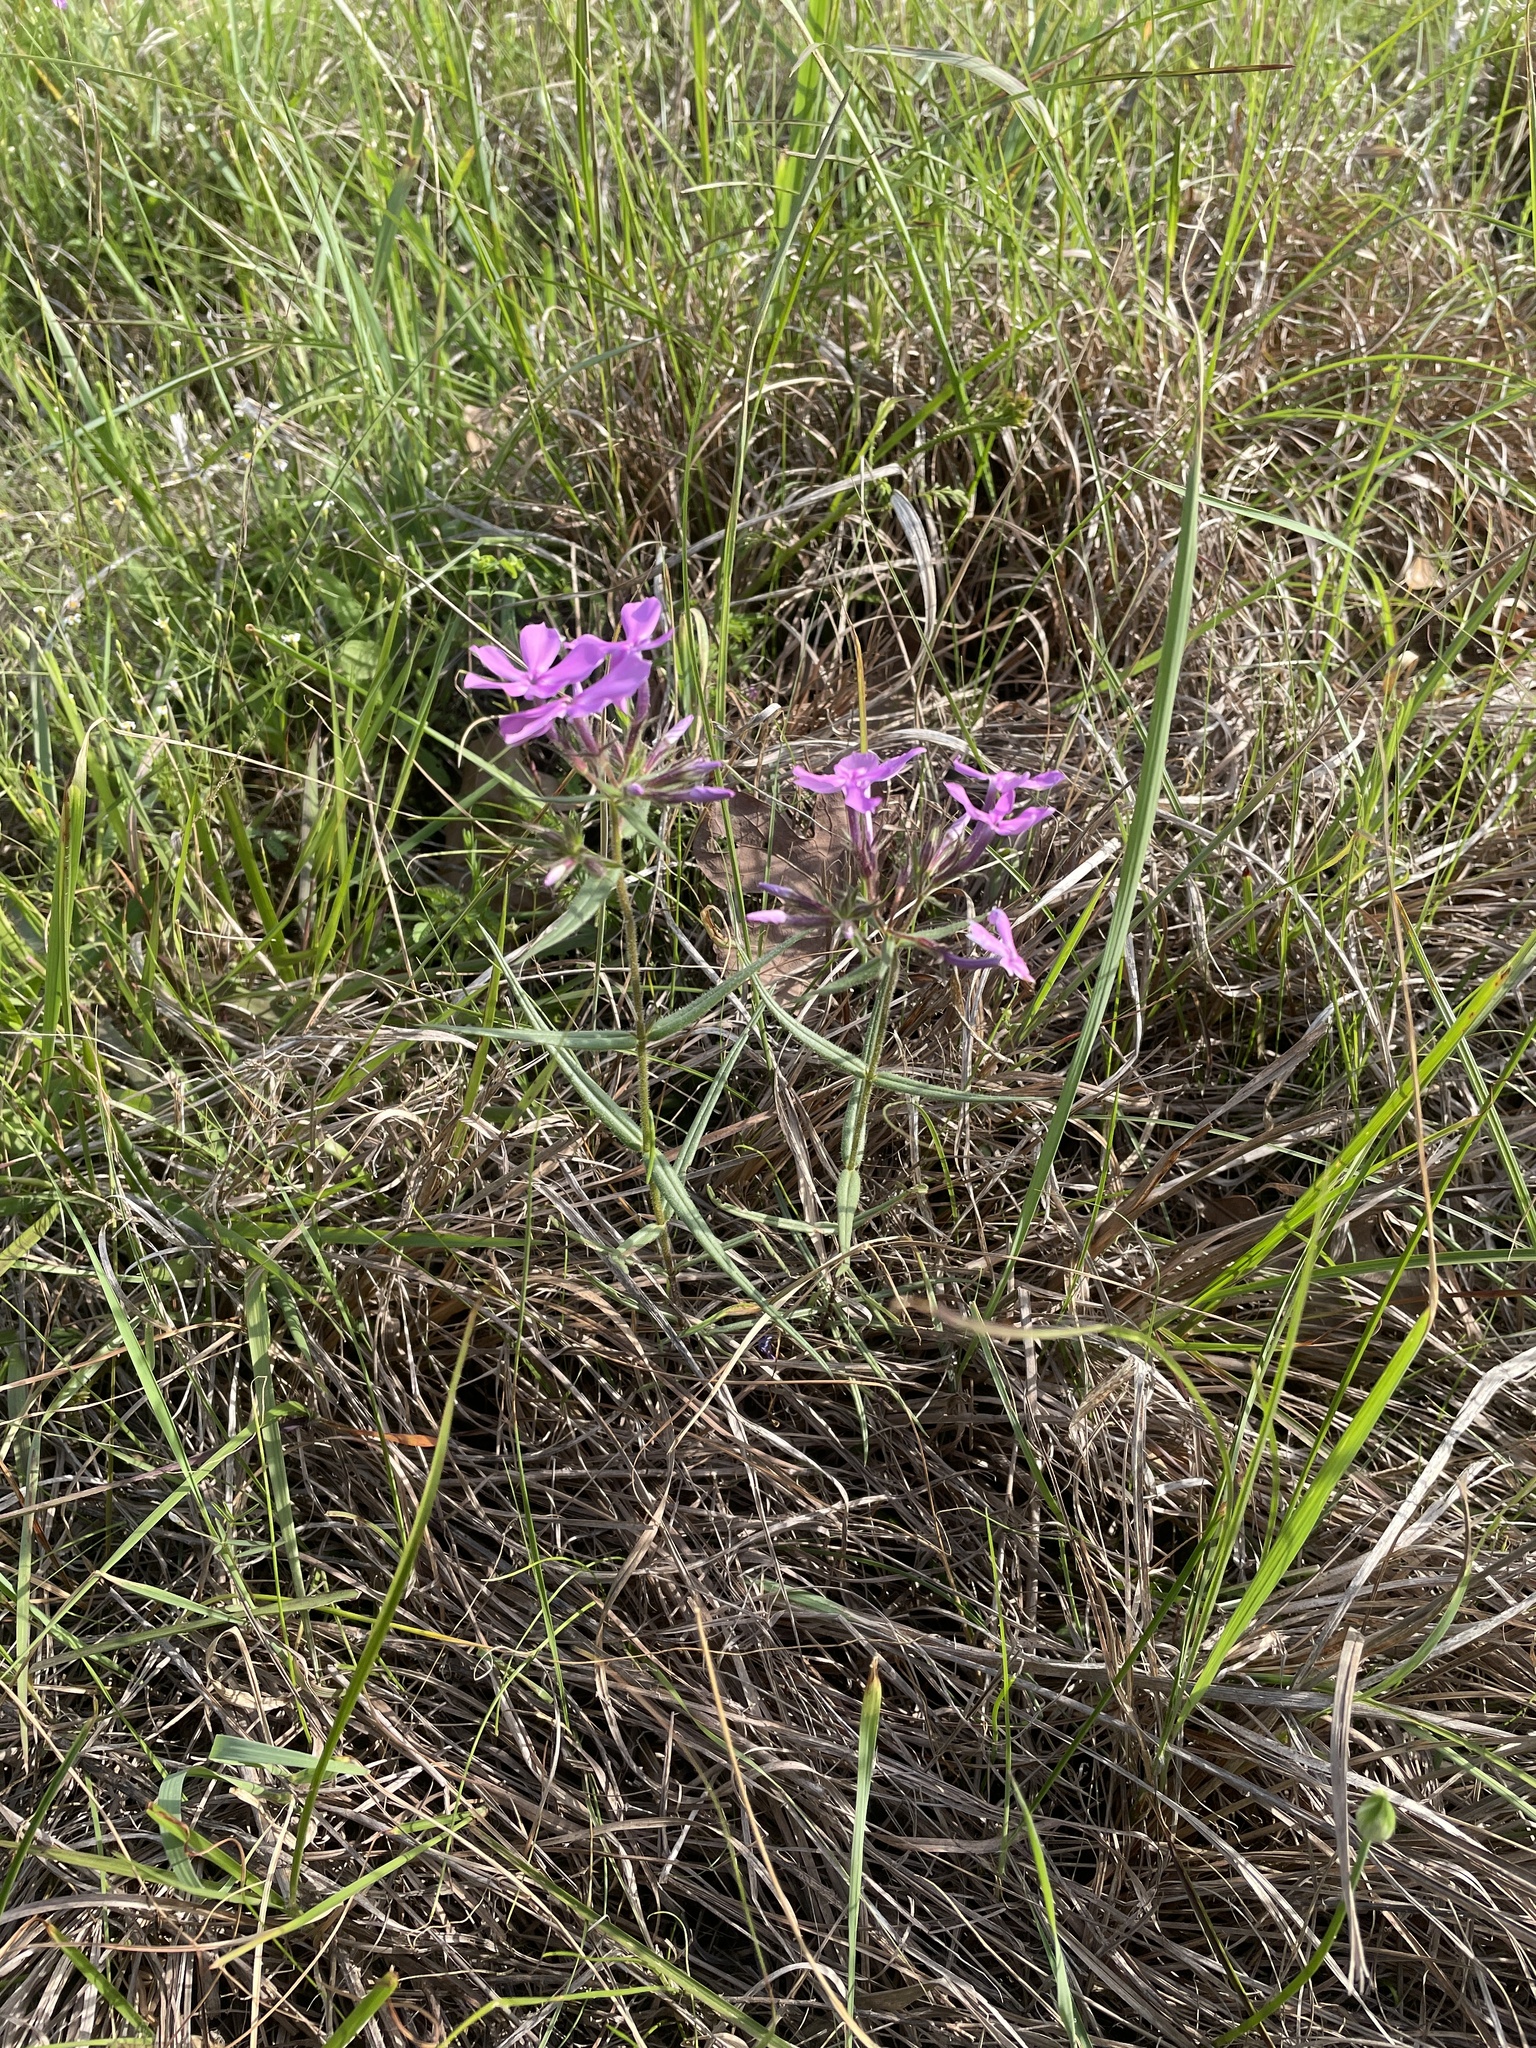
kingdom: Plantae
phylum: Tracheophyta
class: Magnoliopsida
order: Ericales
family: Polemoniaceae
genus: Phlox
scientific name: Phlox pilosa
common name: Prairie phlox
